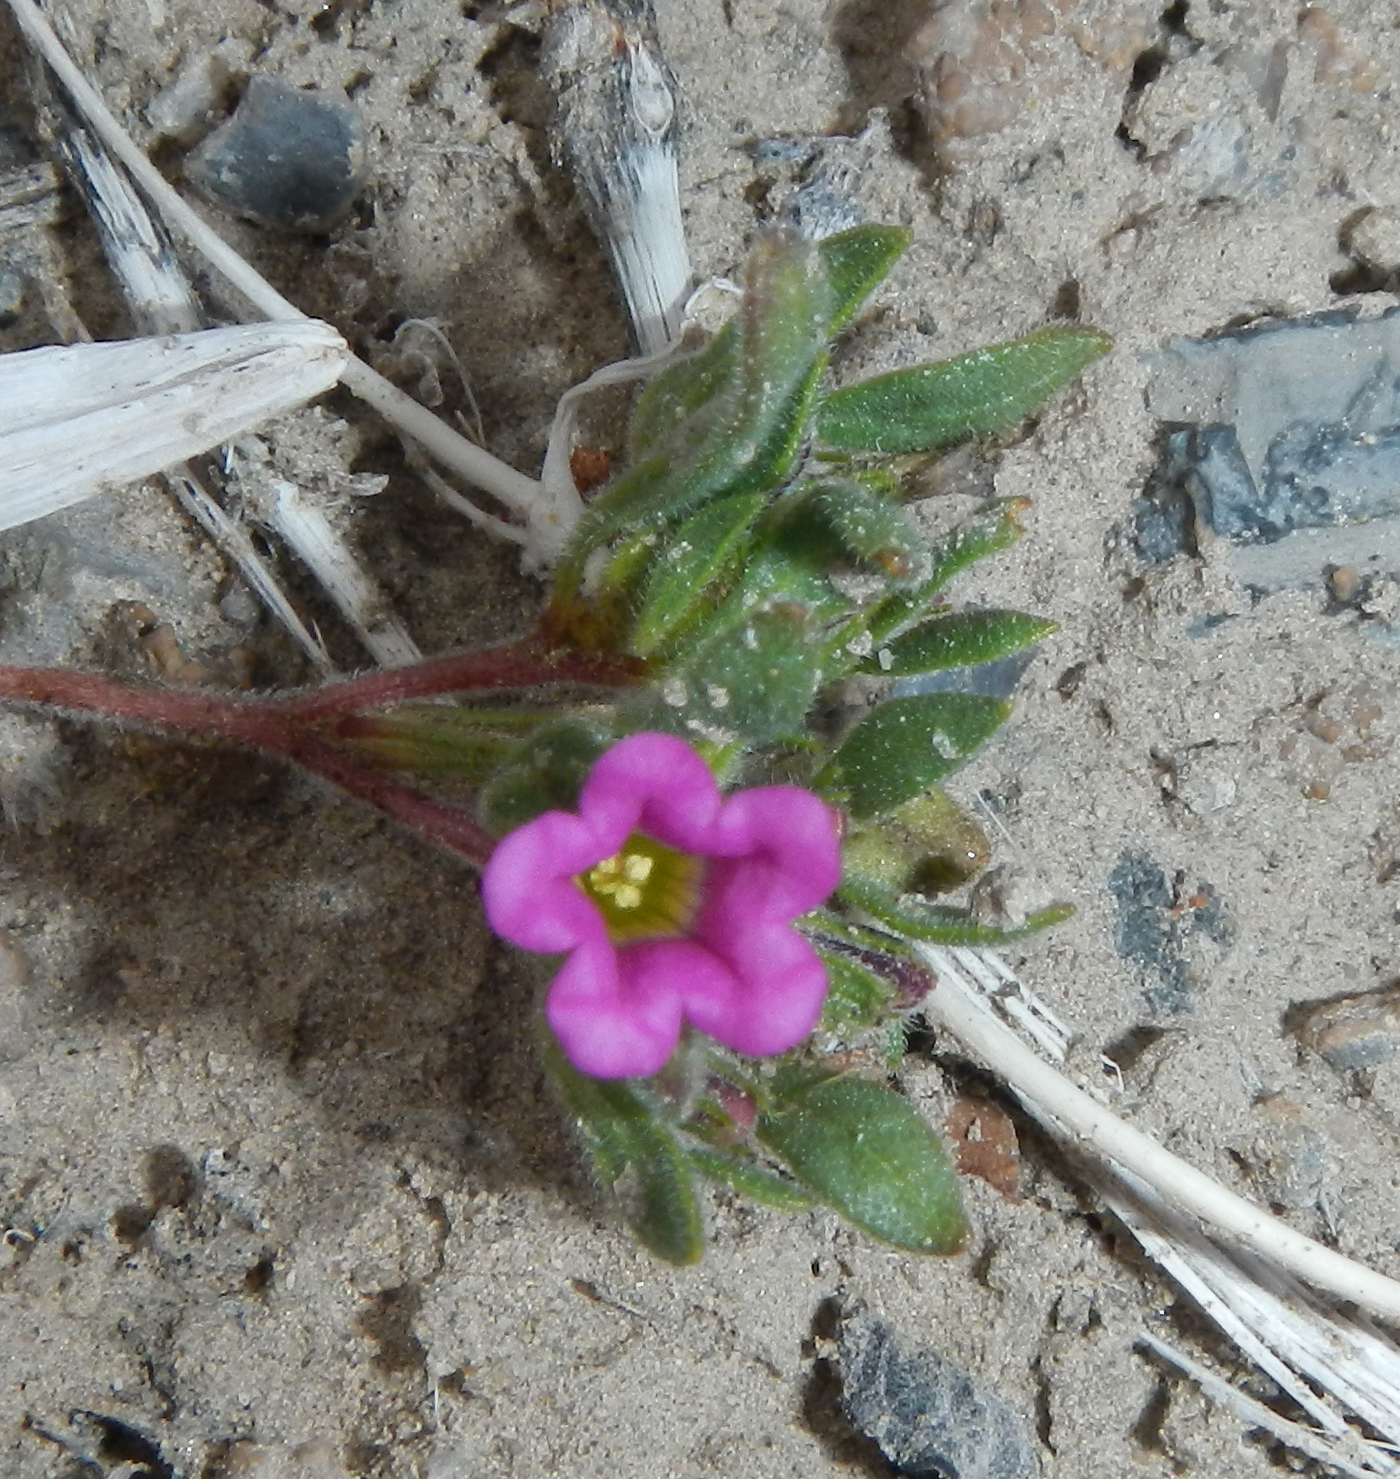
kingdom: Plantae
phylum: Tracheophyta
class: Magnoliopsida
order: Boraginales
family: Namaceae
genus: Nama
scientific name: Nama demissa
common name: Leafy nama
